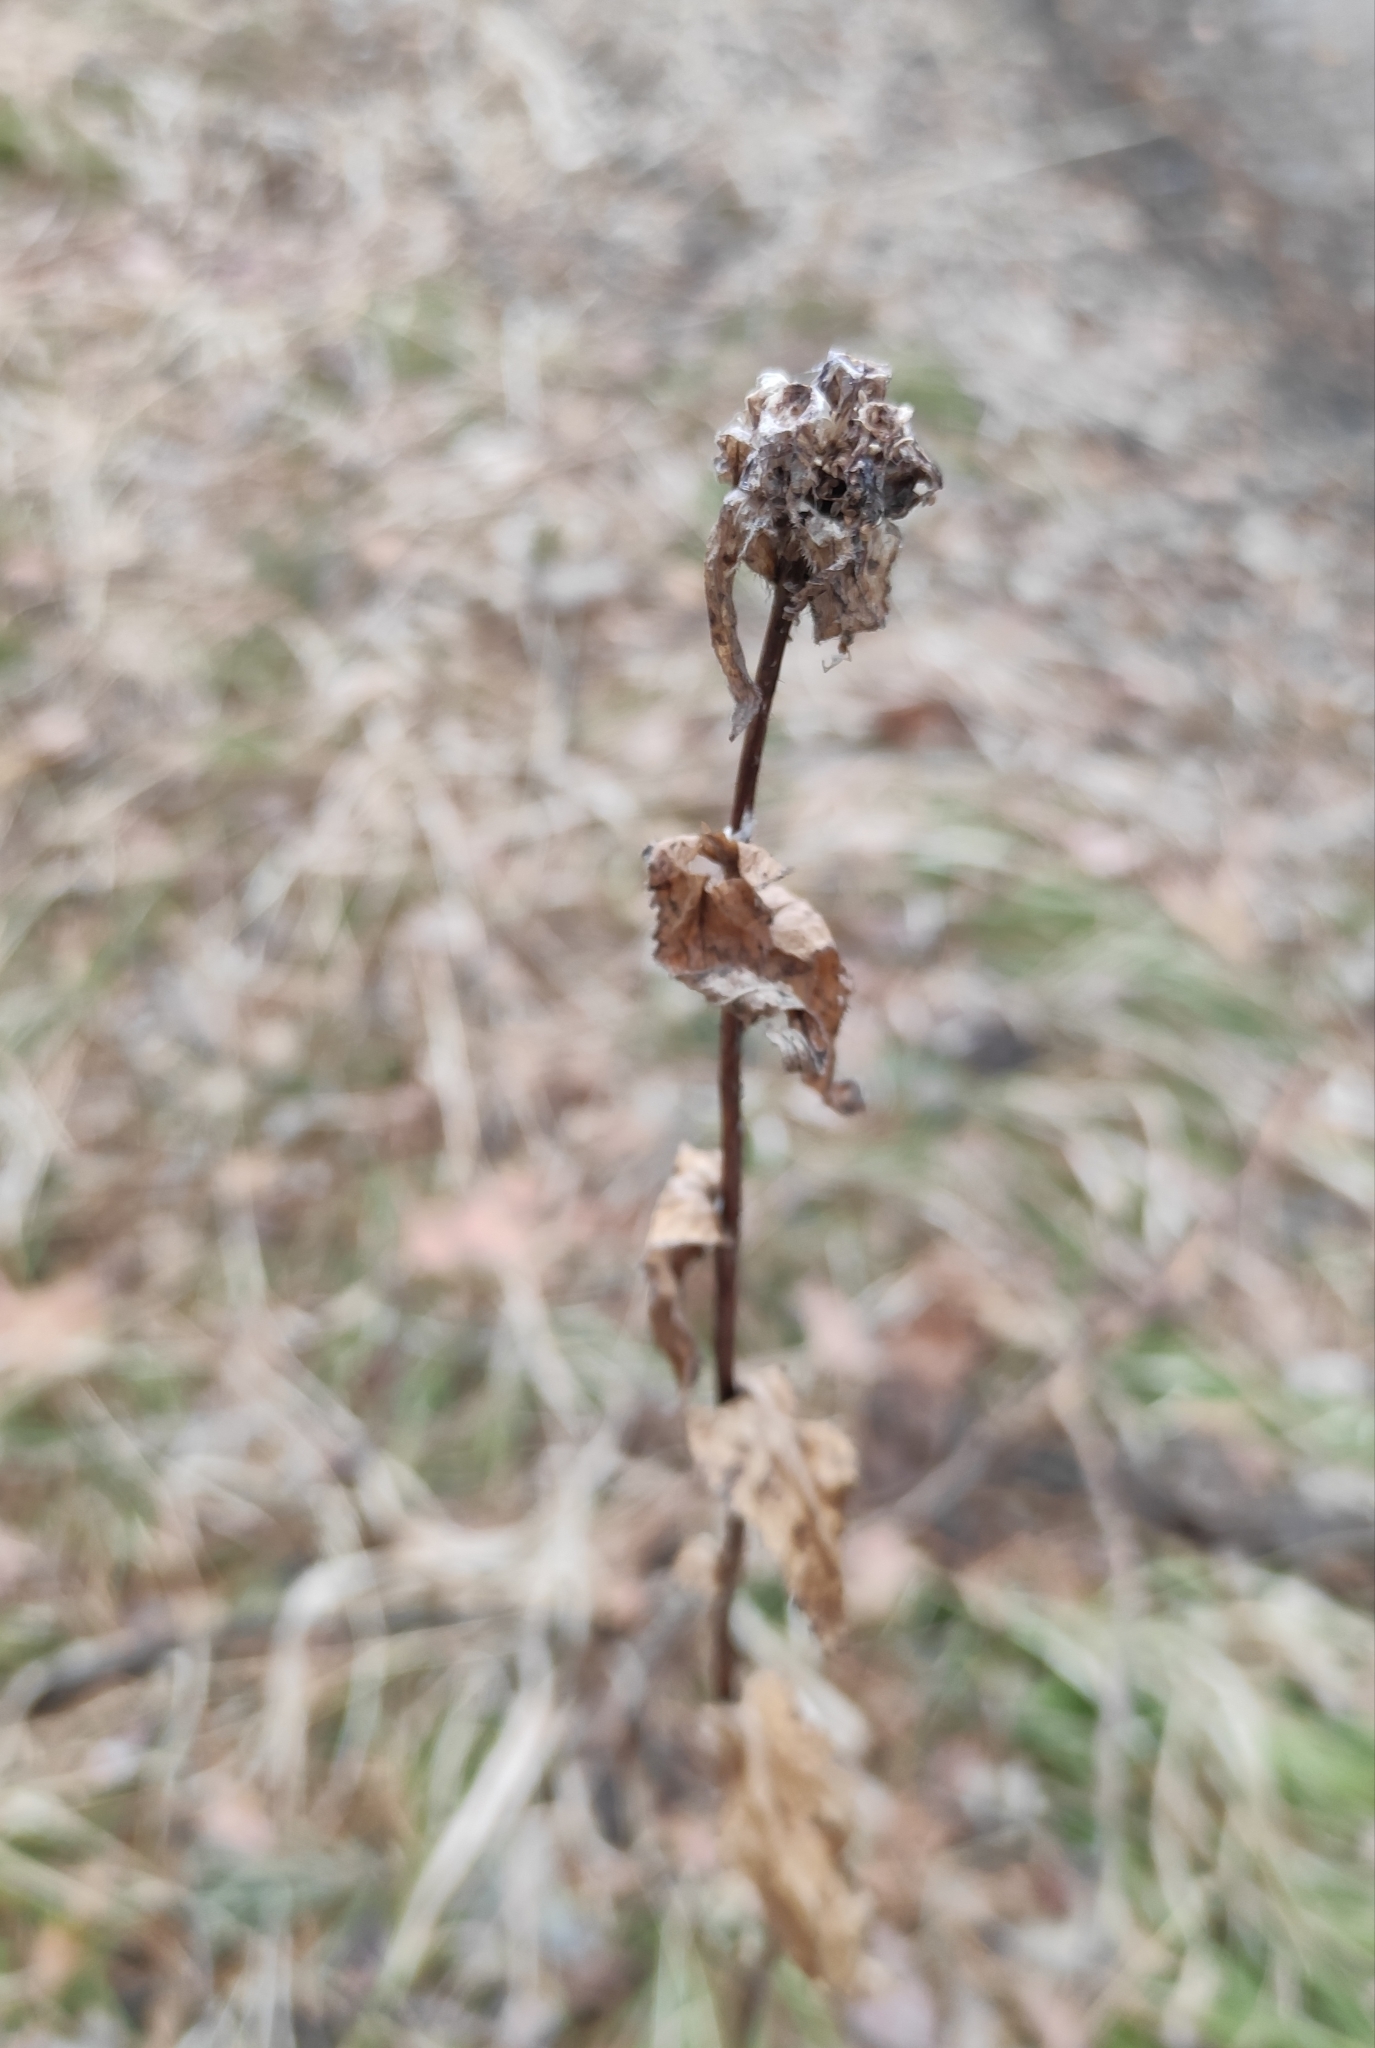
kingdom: Plantae
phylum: Tracheophyta
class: Magnoliopsida
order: Asterales
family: Campanulaceae
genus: Campanula
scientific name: Campanula glomerata
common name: Clustered bellflower
